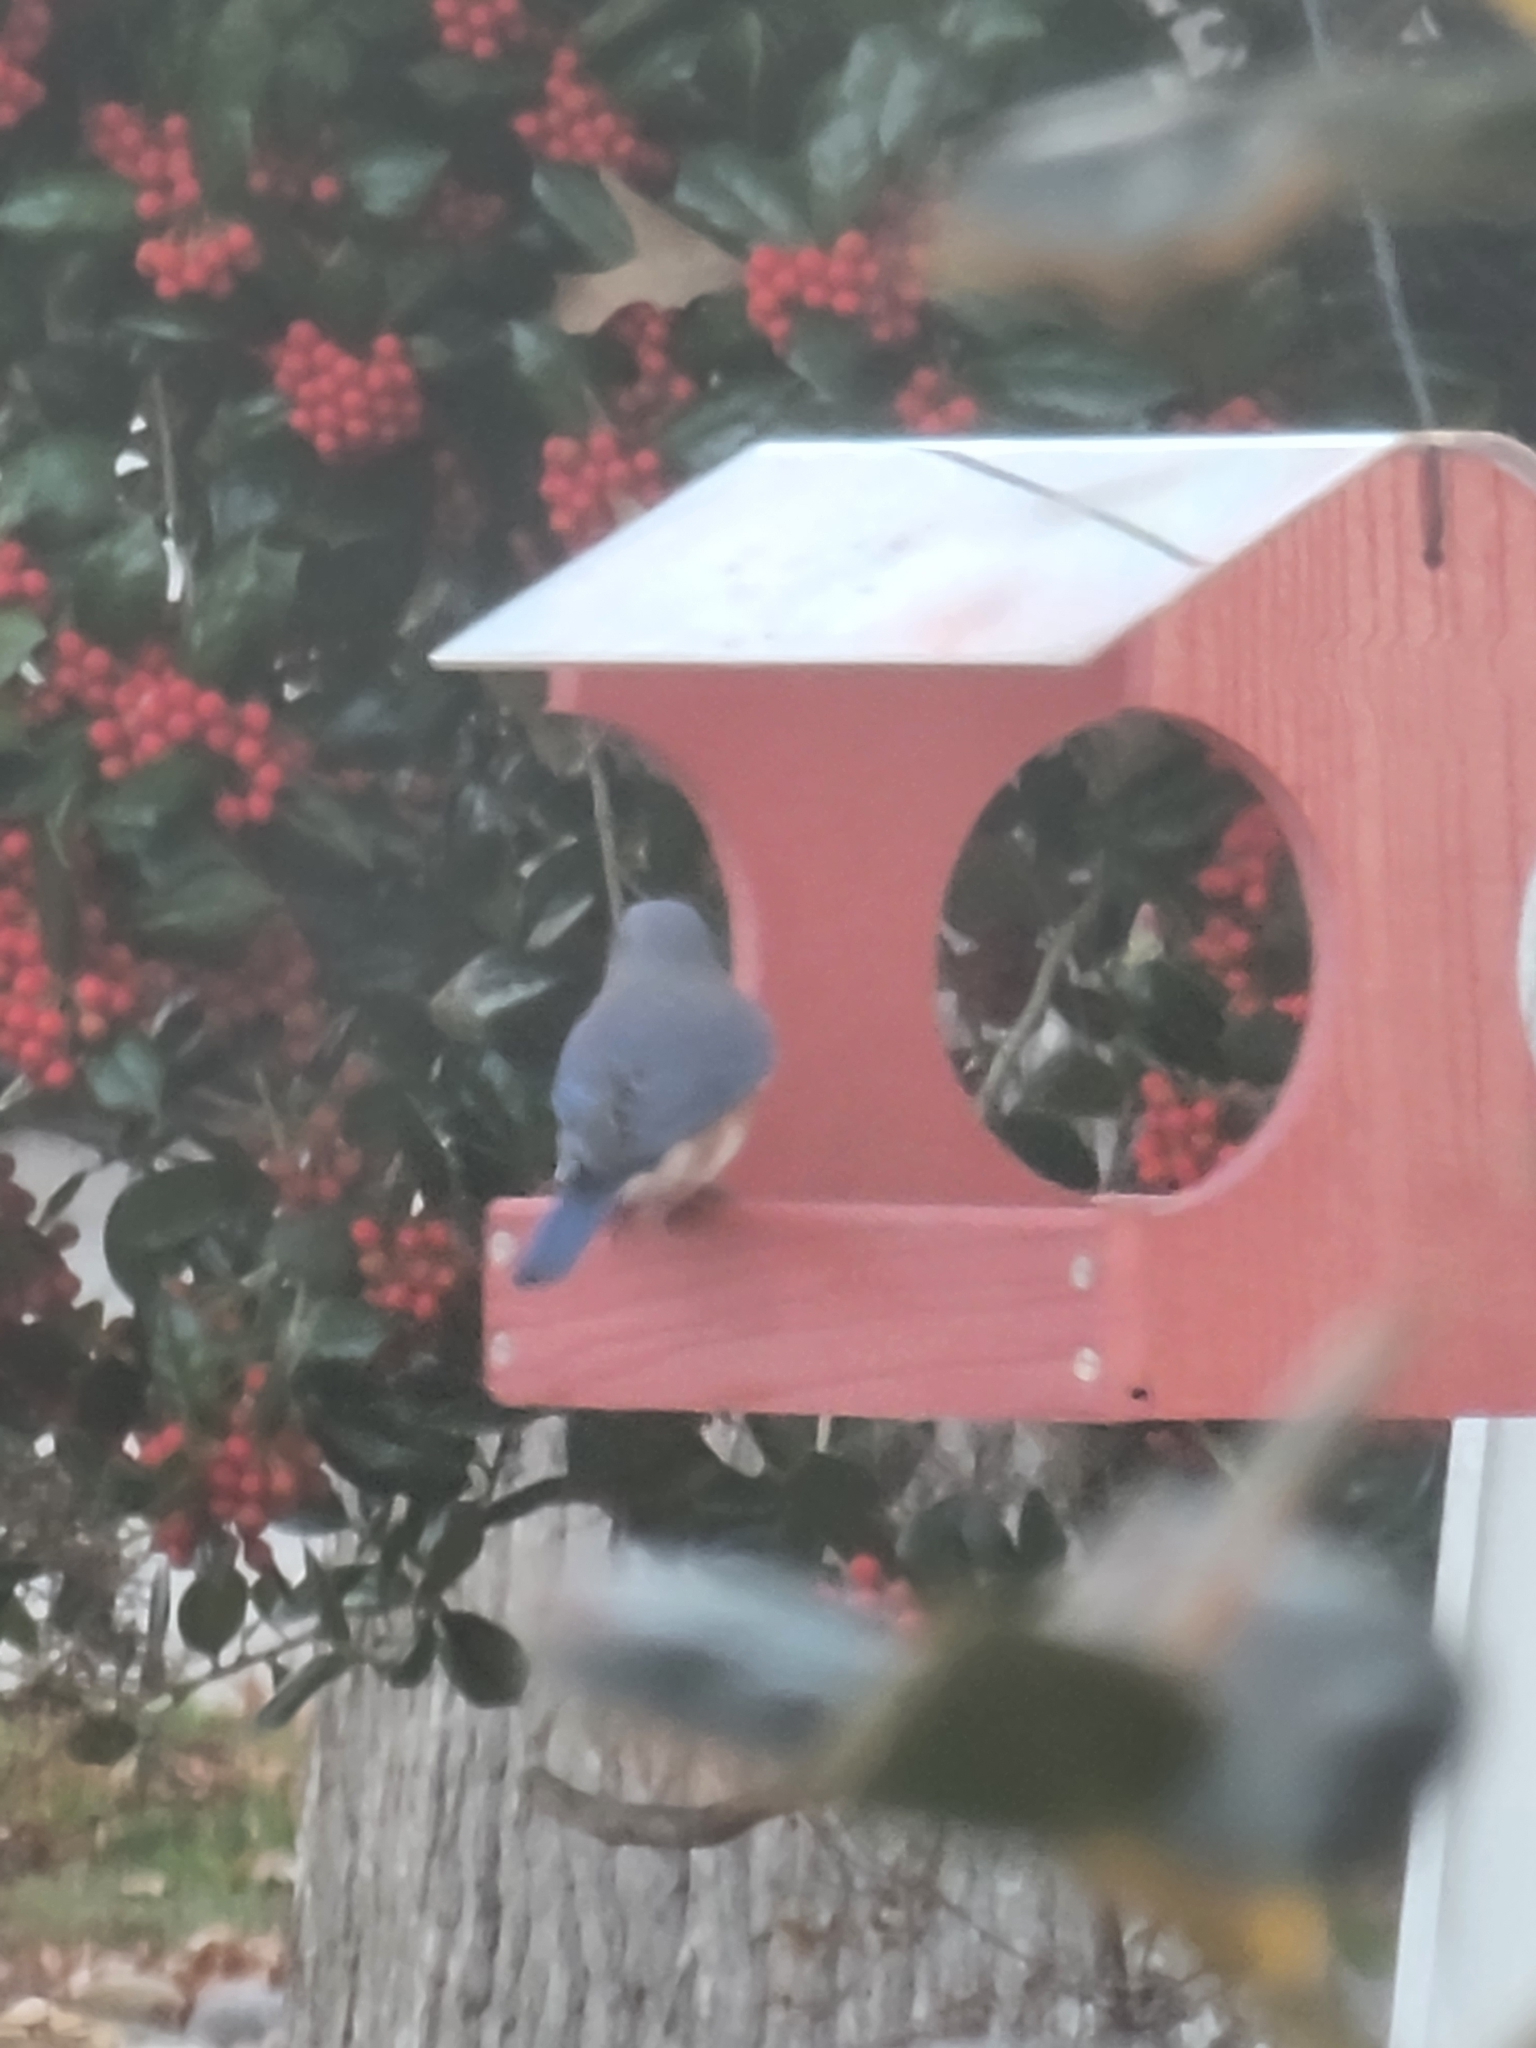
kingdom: Animalia
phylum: Chordata
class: Aves
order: Passeriformes
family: Turdidae
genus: Sialia
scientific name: Sialia sialis
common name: Eastern bluebird
